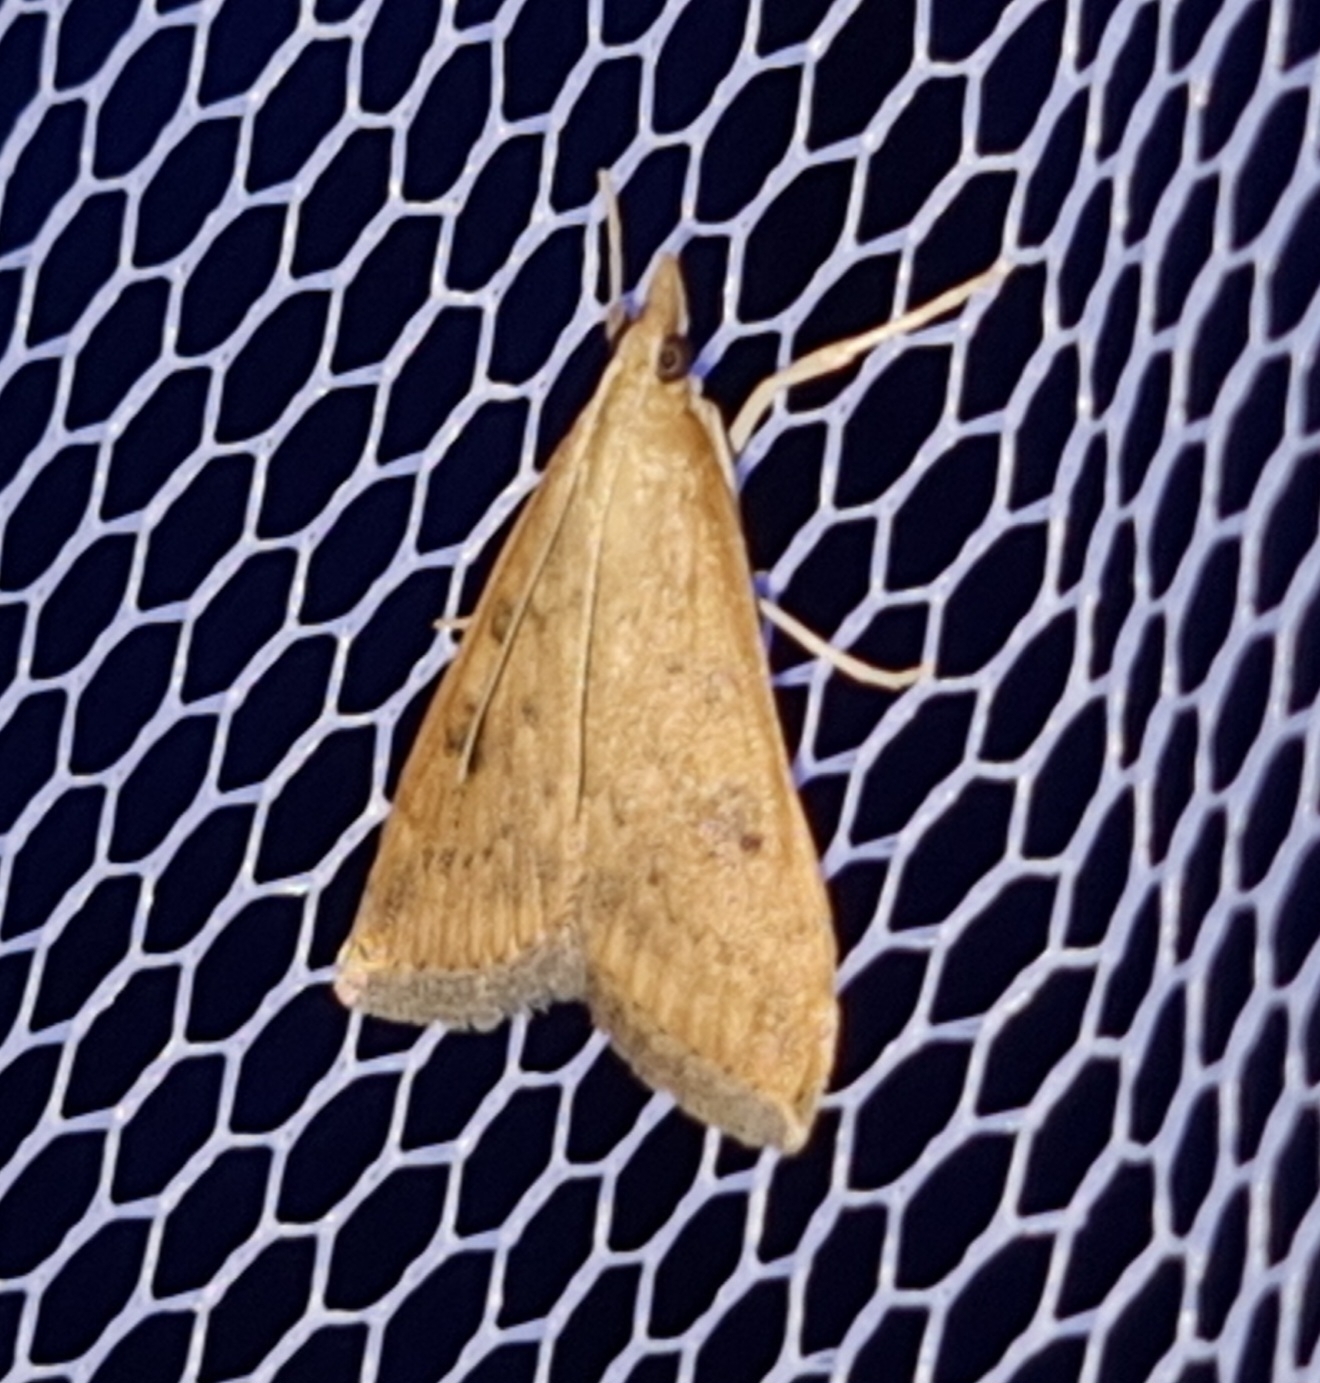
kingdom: Animalia
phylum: Arthropoda
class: Insecta
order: Lepidoptera
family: Crambidae
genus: Udea
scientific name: Udea ferrugalis
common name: Rusty dot
